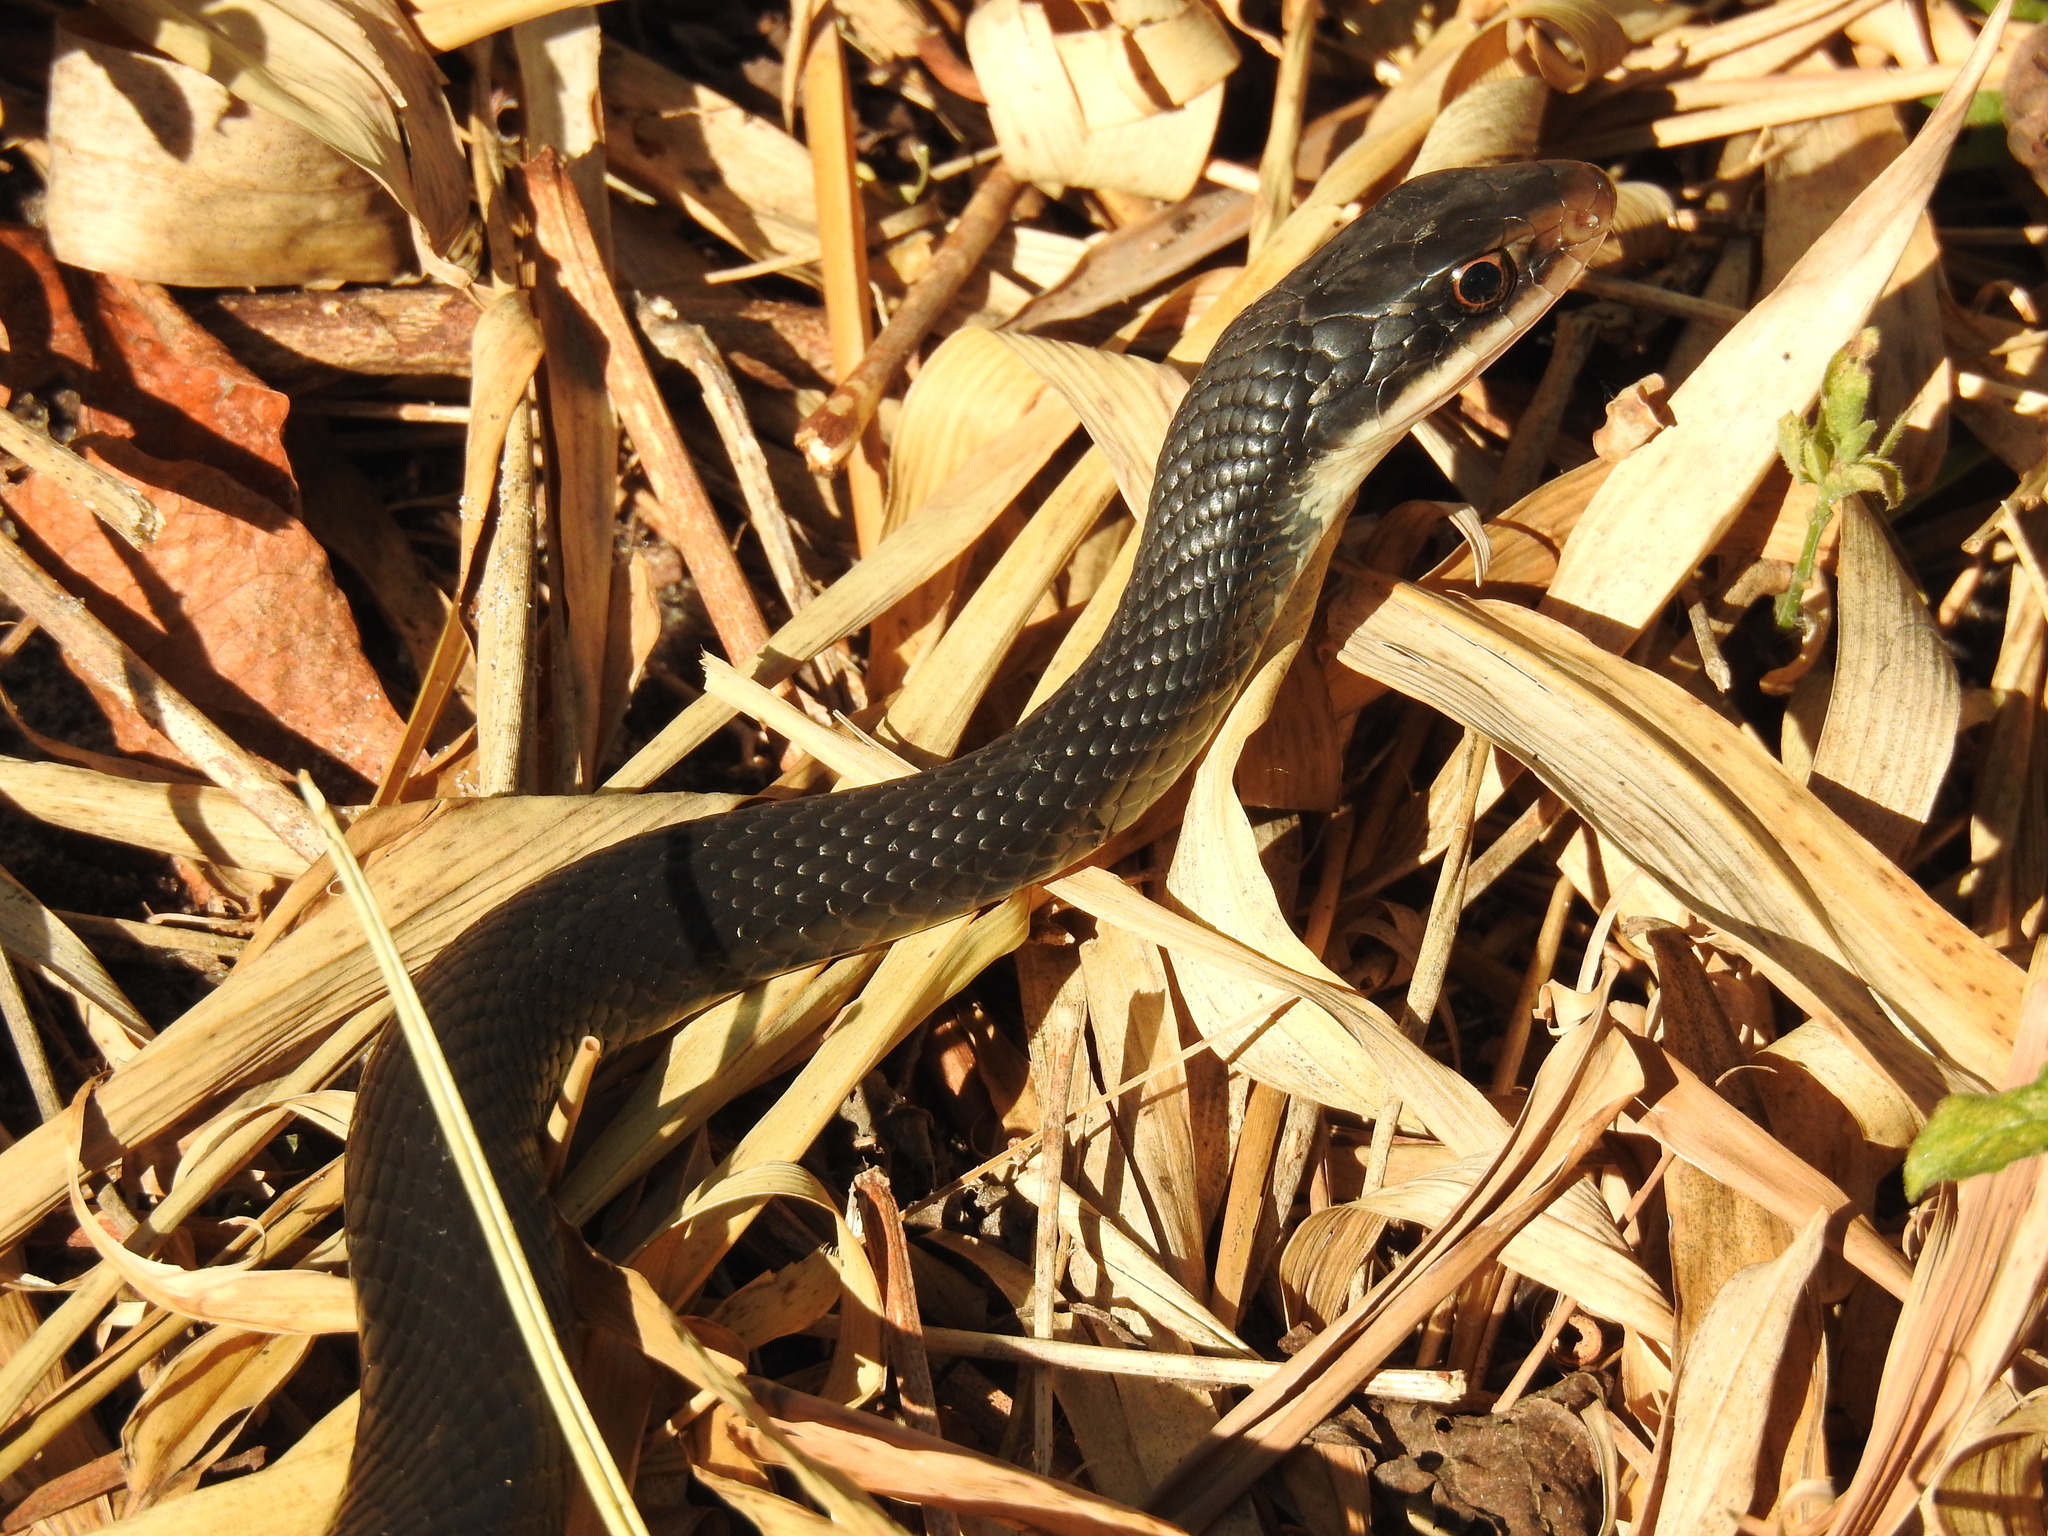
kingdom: Animalia
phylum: Chordata
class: Squamata
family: Colubridae
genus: Coluber
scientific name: Coluber constrictor
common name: Eastern racer
